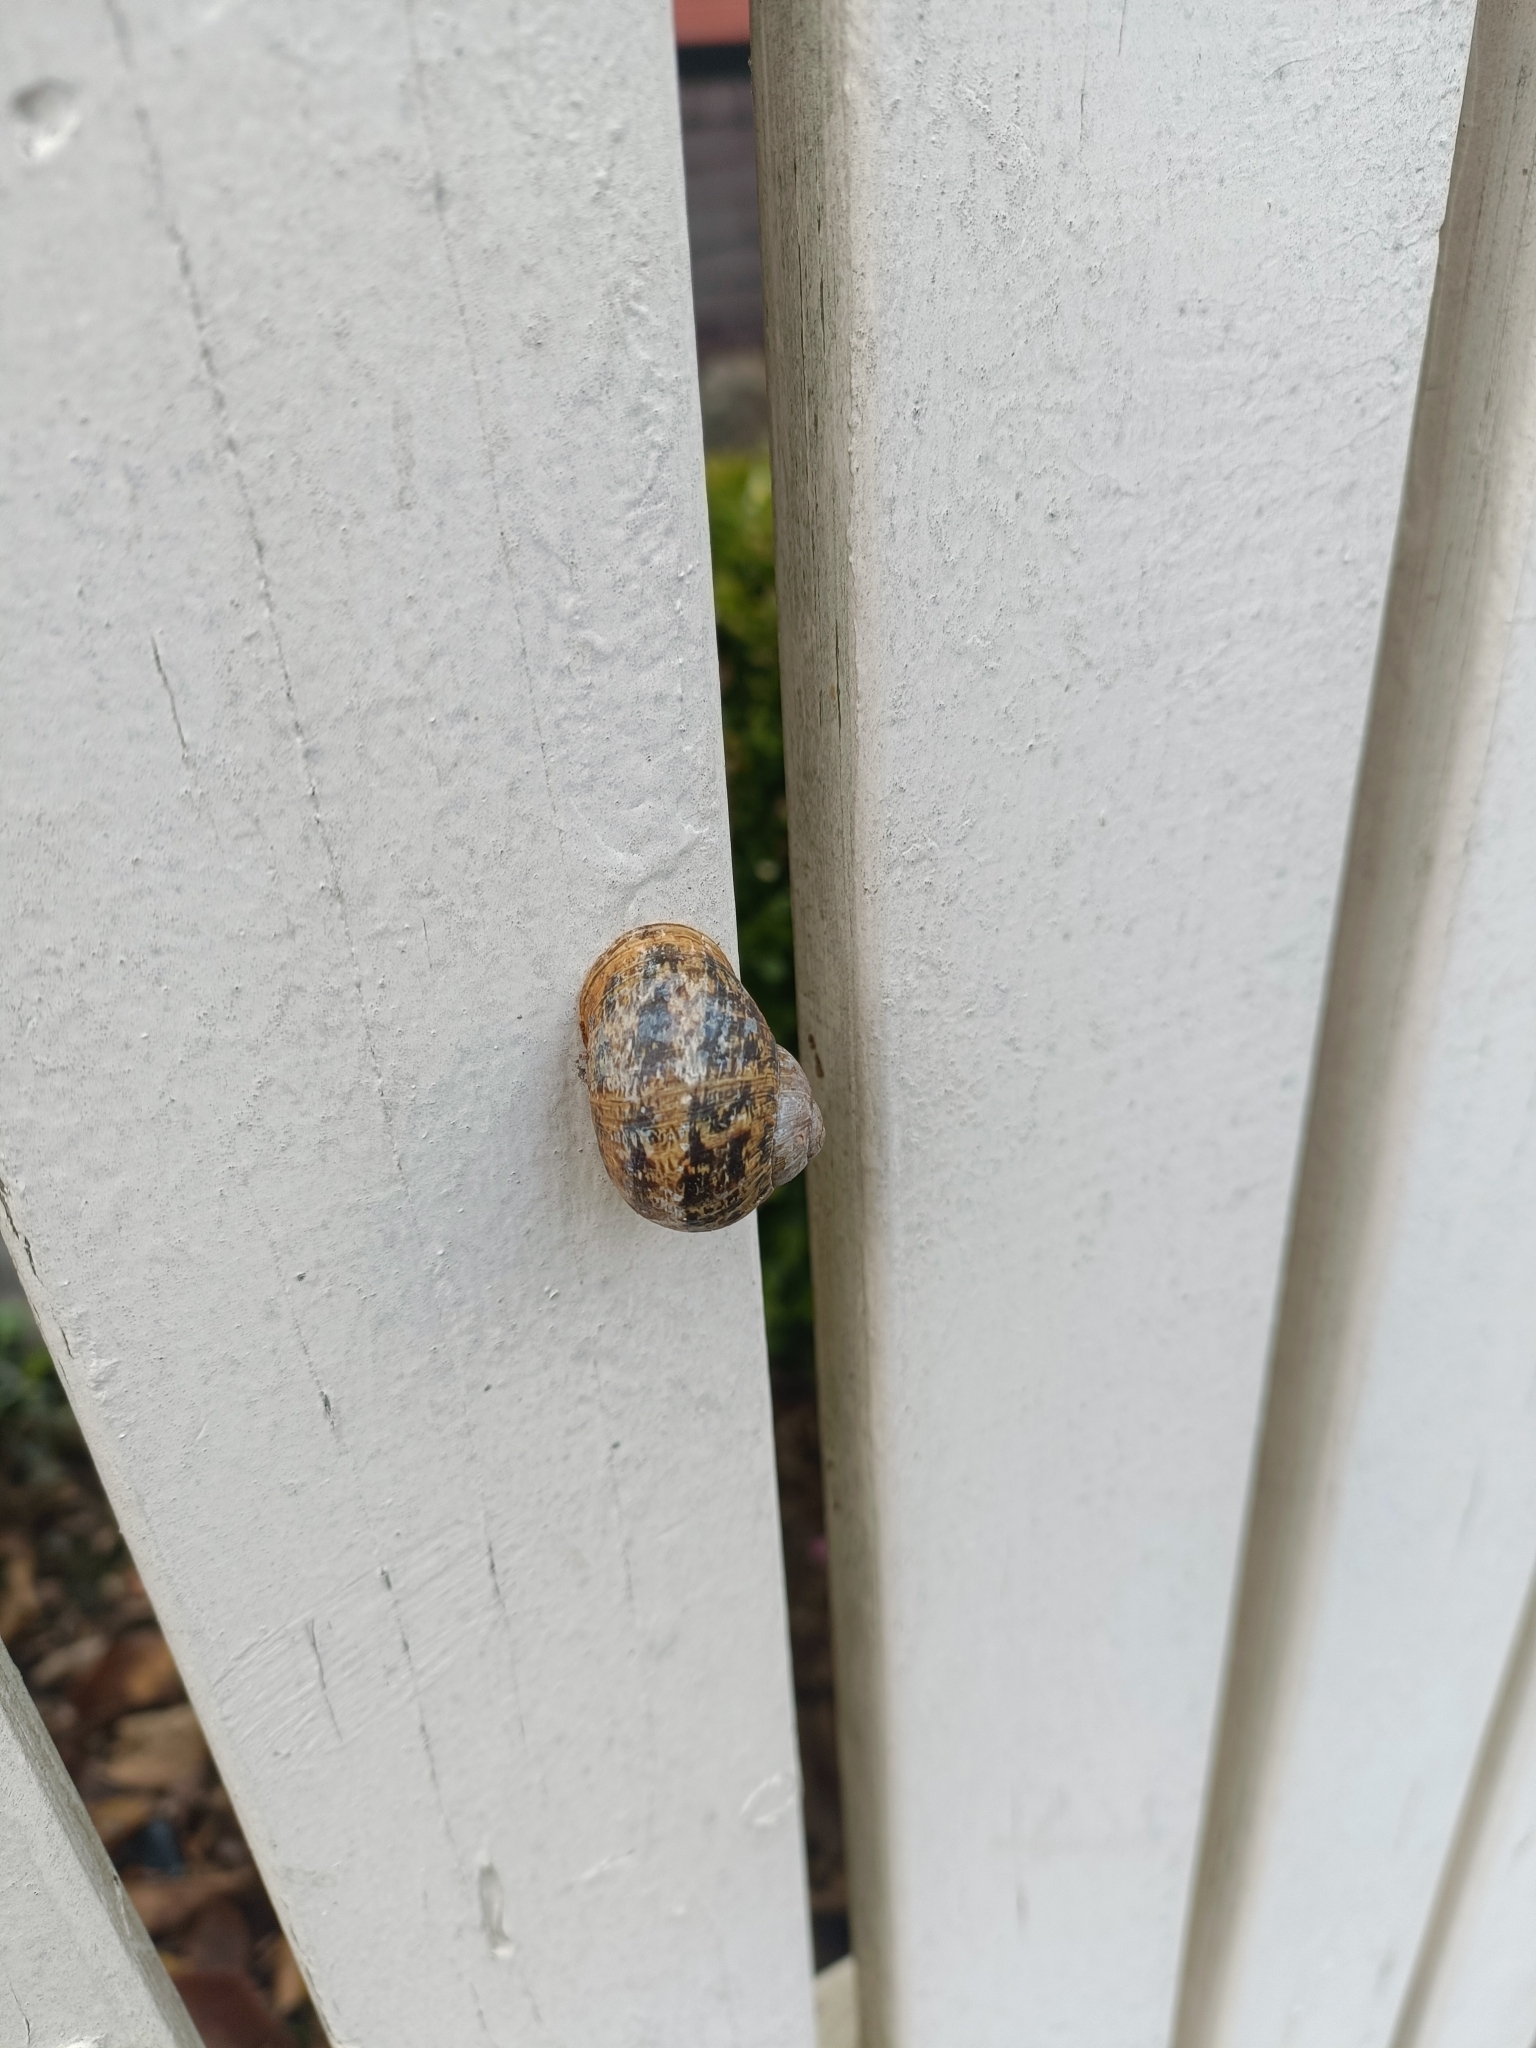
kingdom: Animalia
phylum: Mollusca
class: Gastropoda
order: Stylommatophora
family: Helicidae
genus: Cornu
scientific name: Cornu aspersum
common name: Brown garden snail
